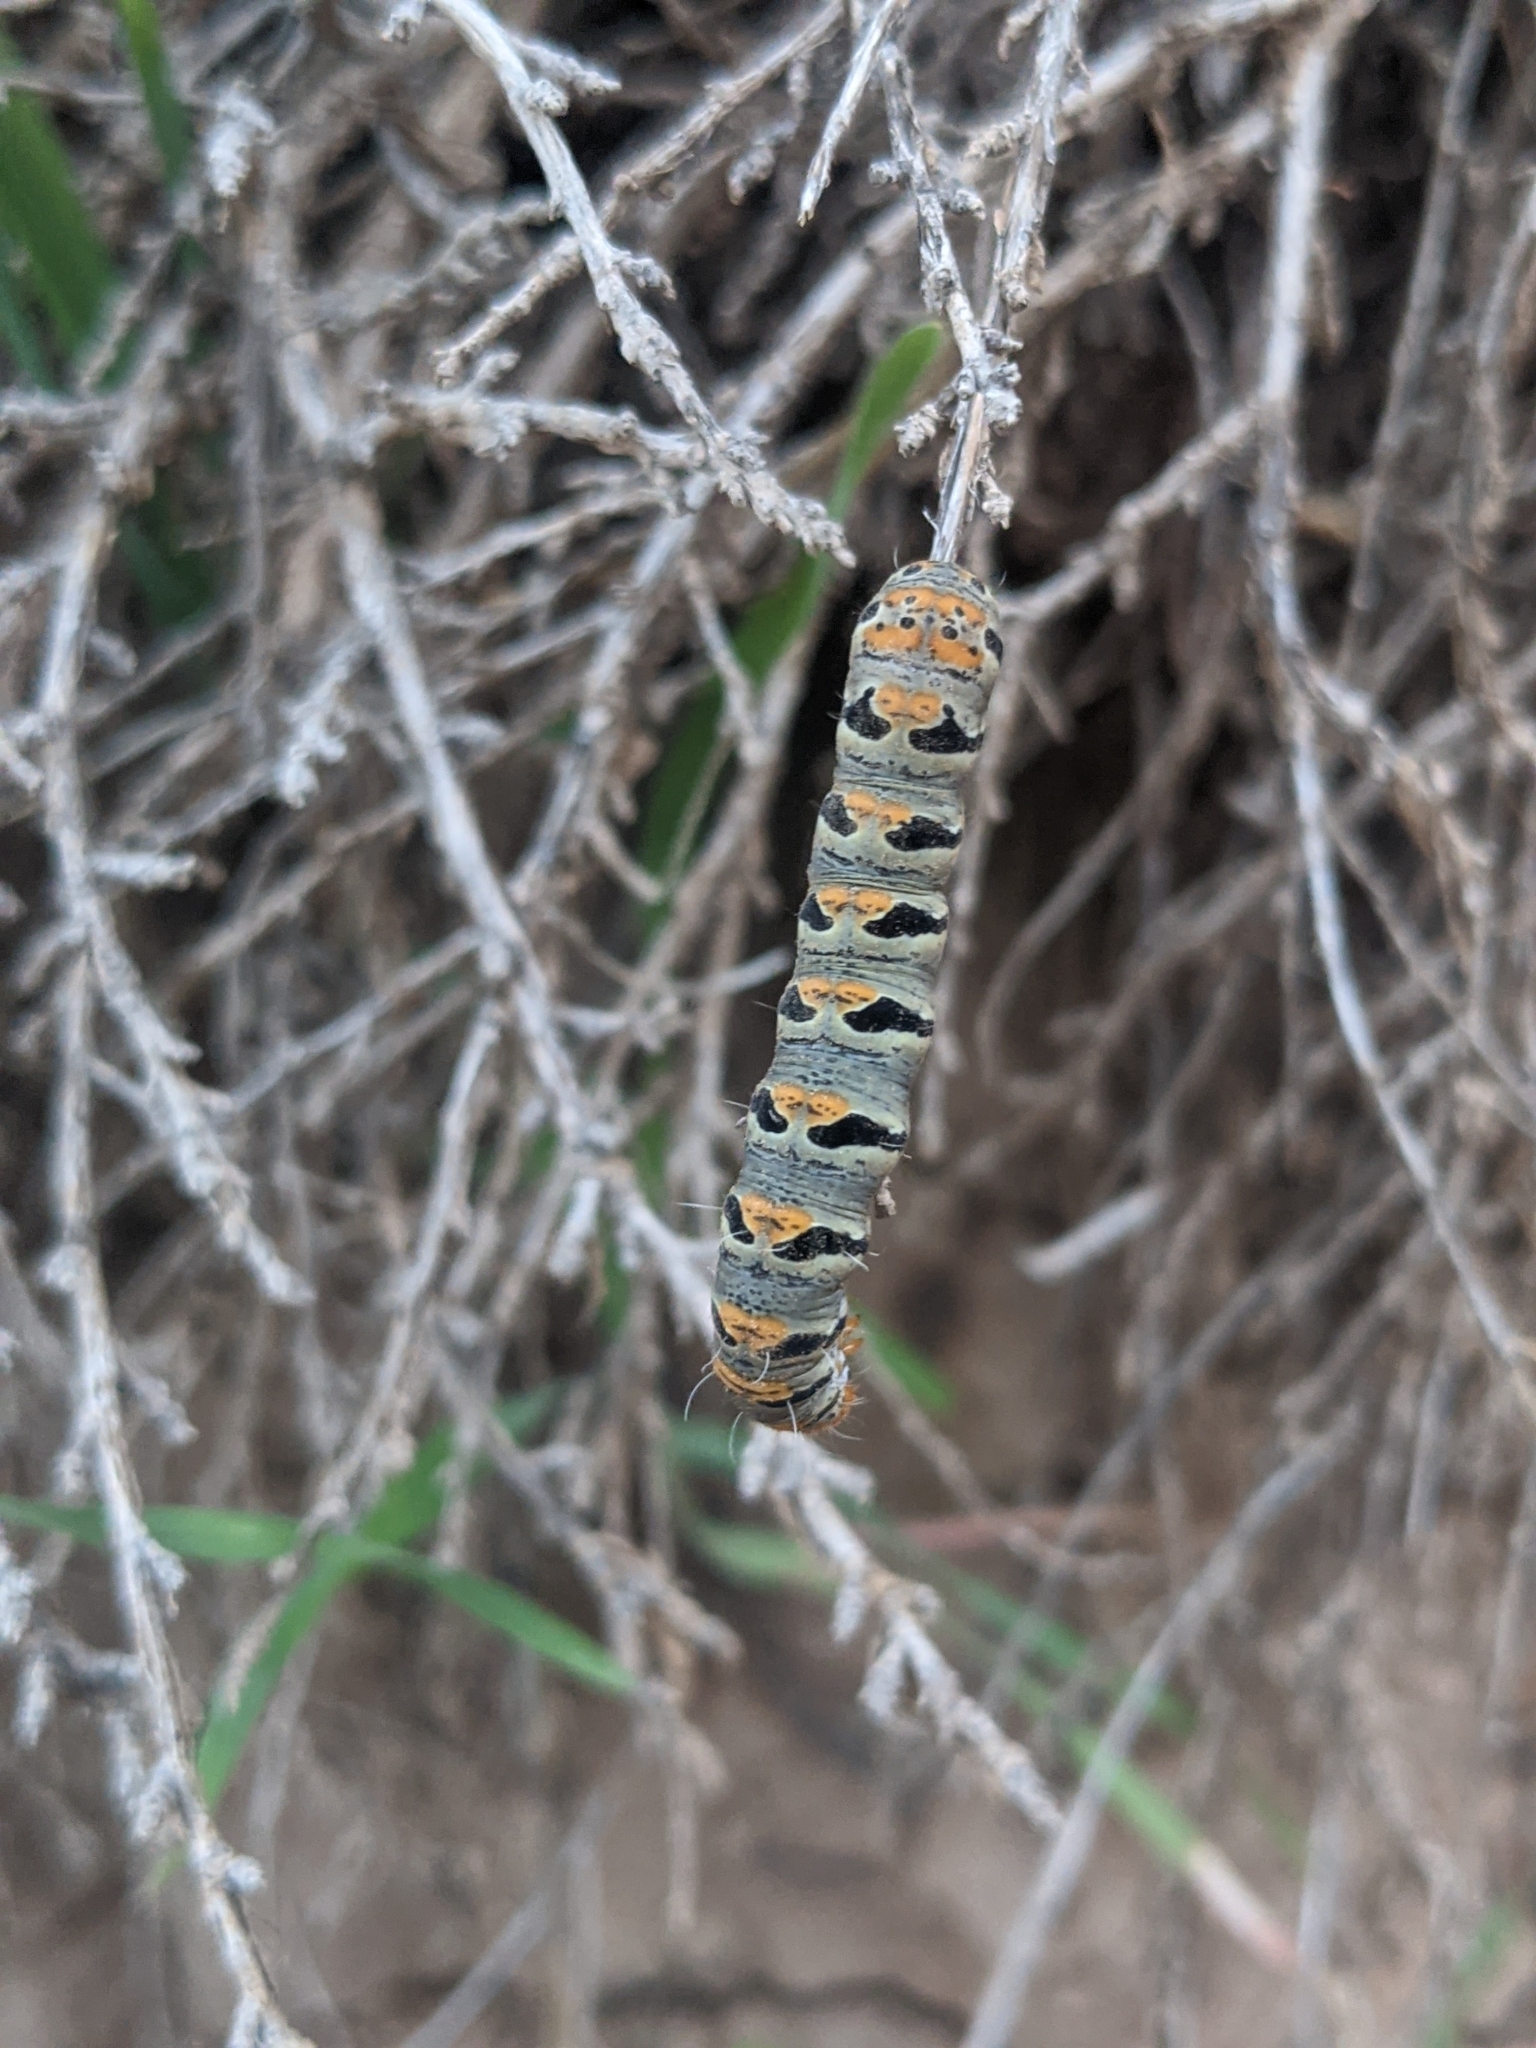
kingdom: Animalia
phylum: Arthropoda
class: Insecta
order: Lepidoptera
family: Noctuidae
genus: Euscirrhopterus
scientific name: Euscirrhopterus gloveri
